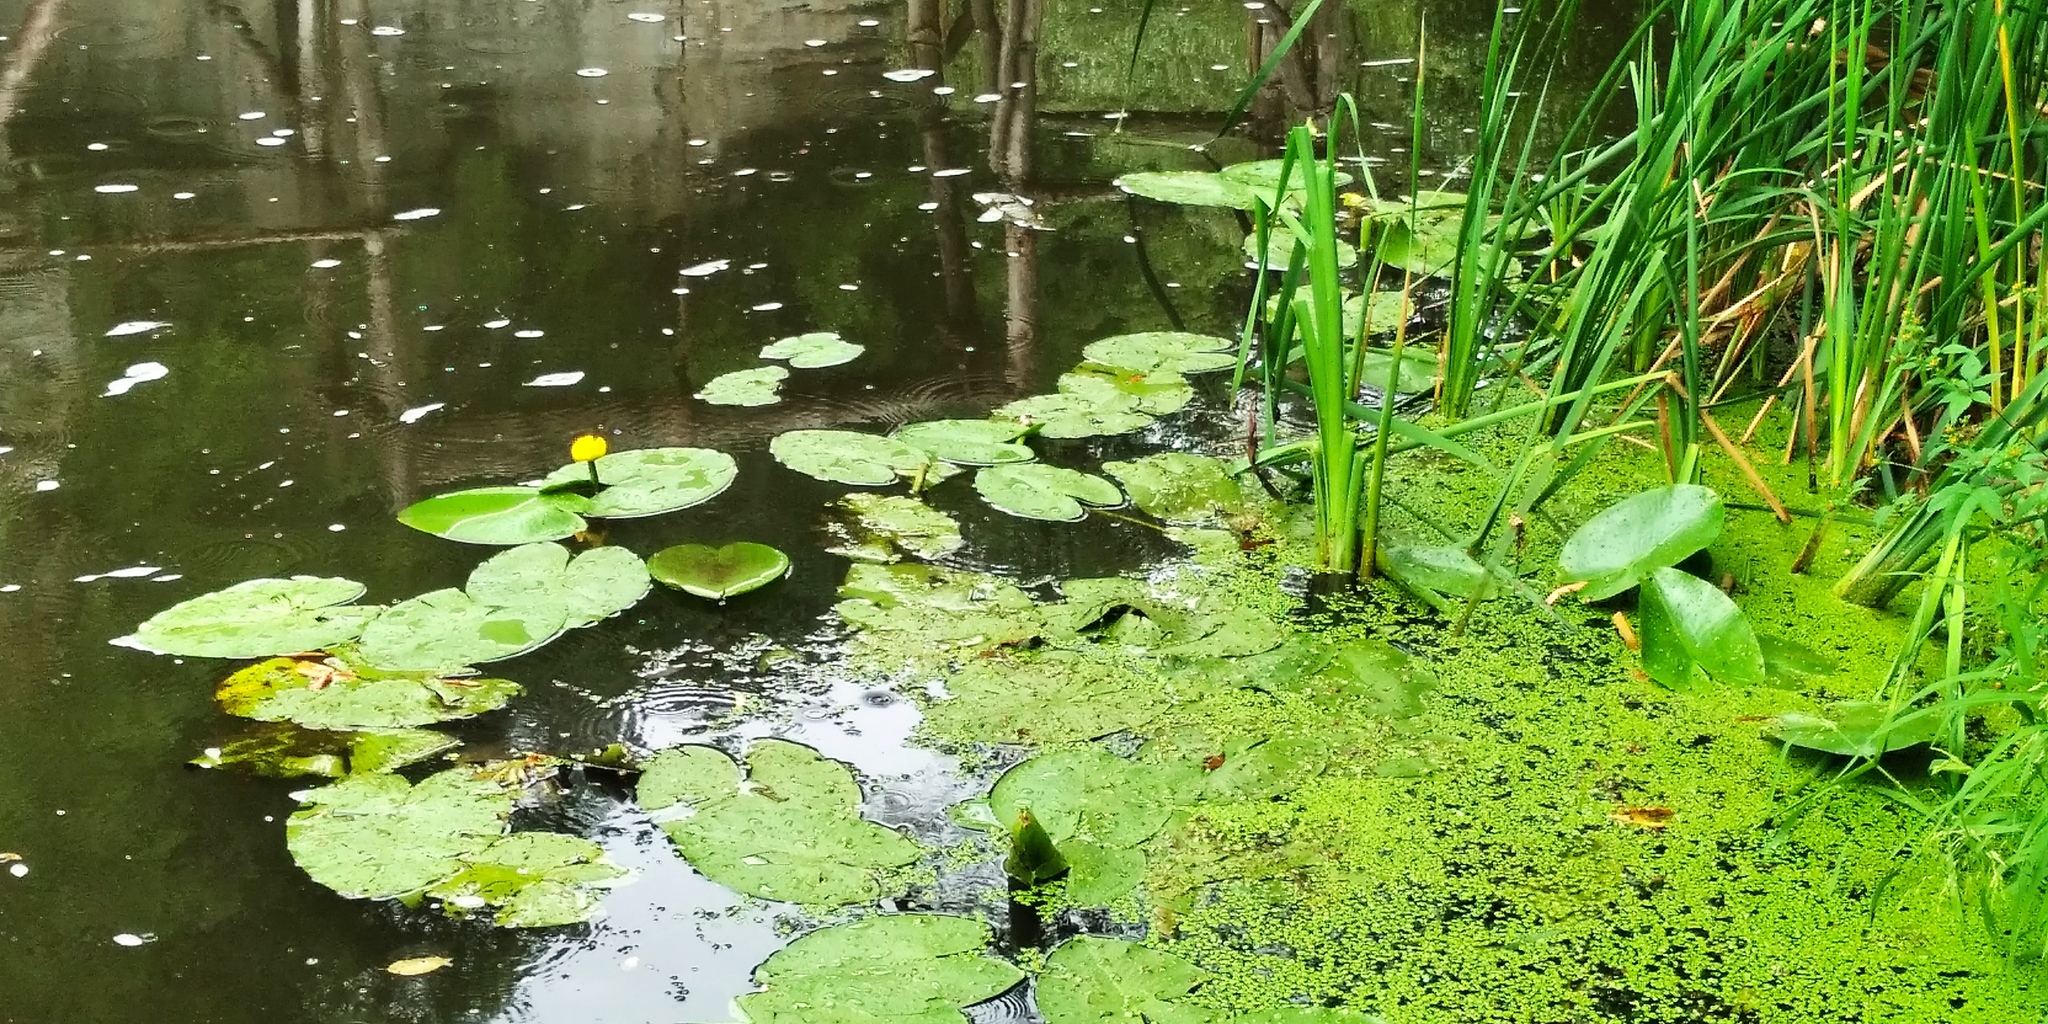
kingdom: Plantae
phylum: Tracheophyta
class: Magnoliopsida
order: Nymphaeales
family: Nymphaeaceae
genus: Nuphar
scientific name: Nuphar lutea
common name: Yellow water-lily
